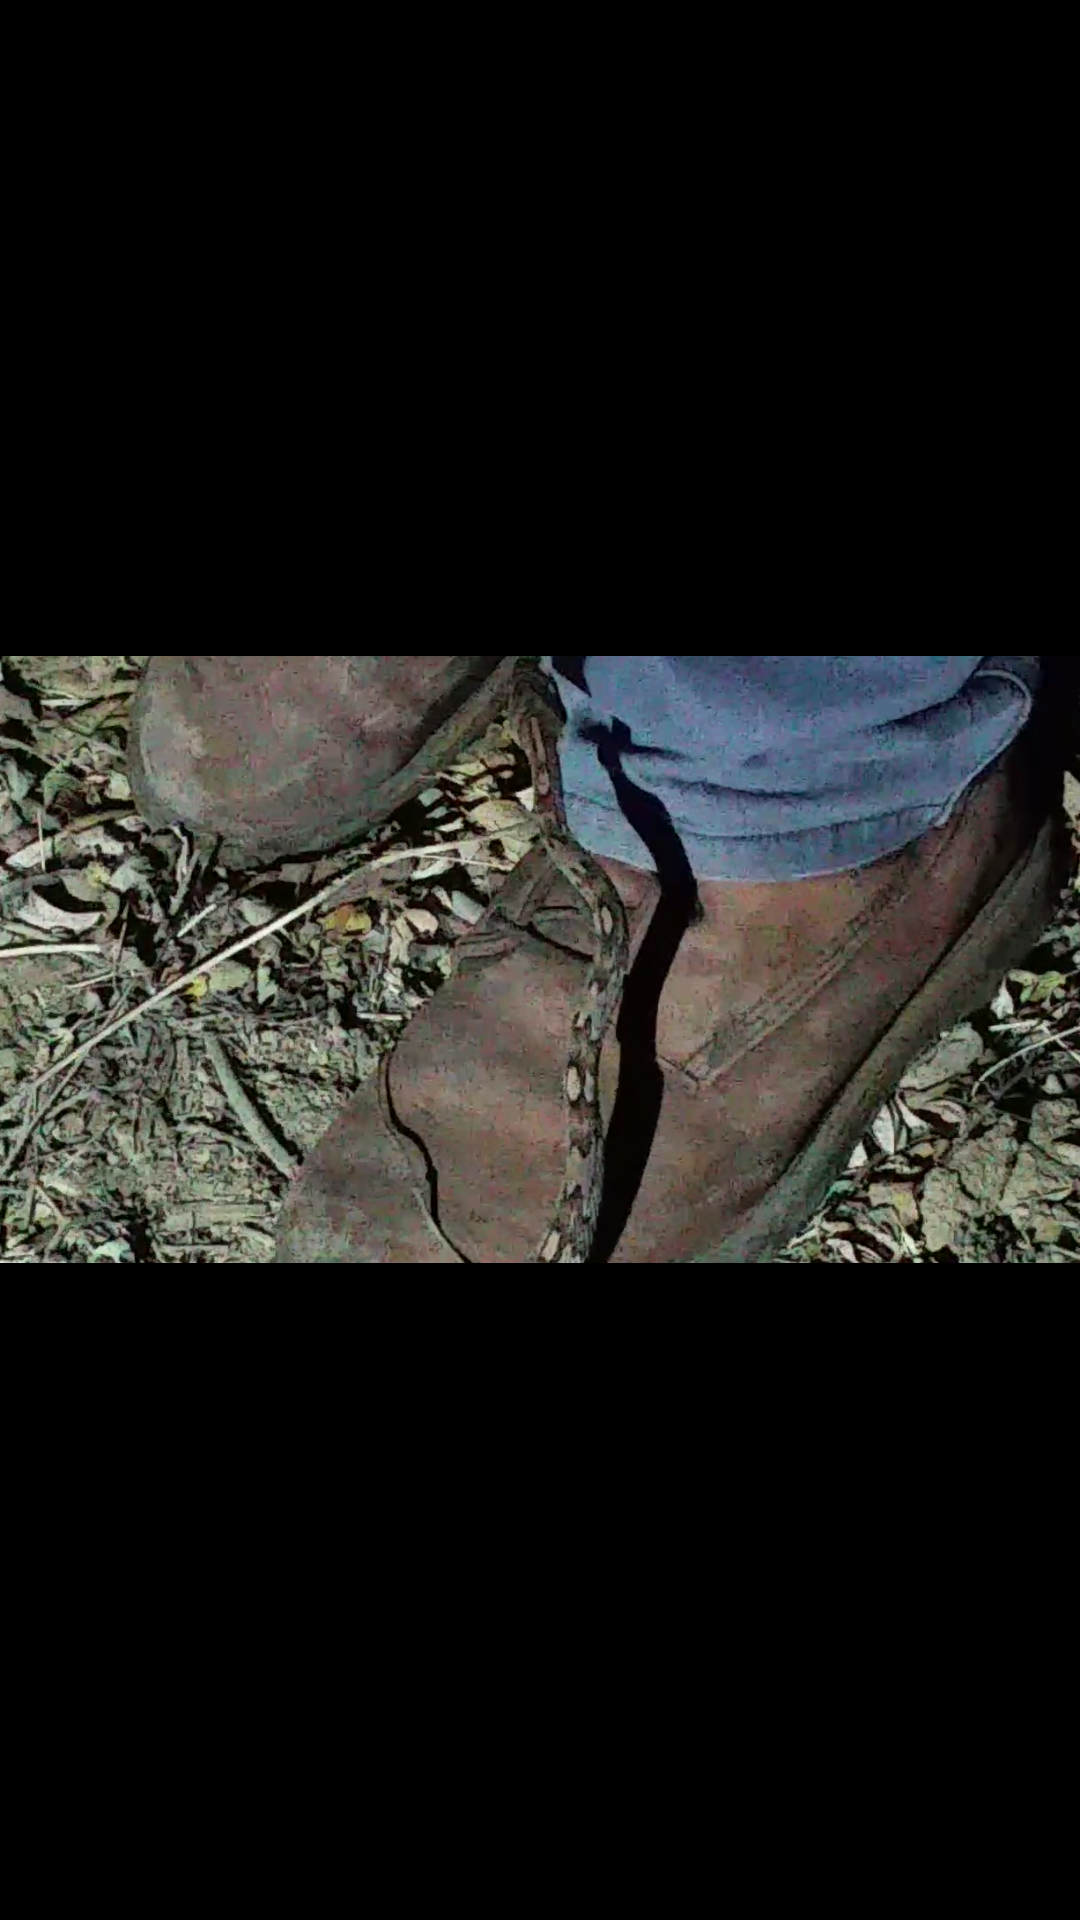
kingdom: Animalia
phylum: Chordata
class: Squamata
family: Colubridae
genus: Trimorphodon
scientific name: Trimorphodon quadruplex
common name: Central american lyre snake
